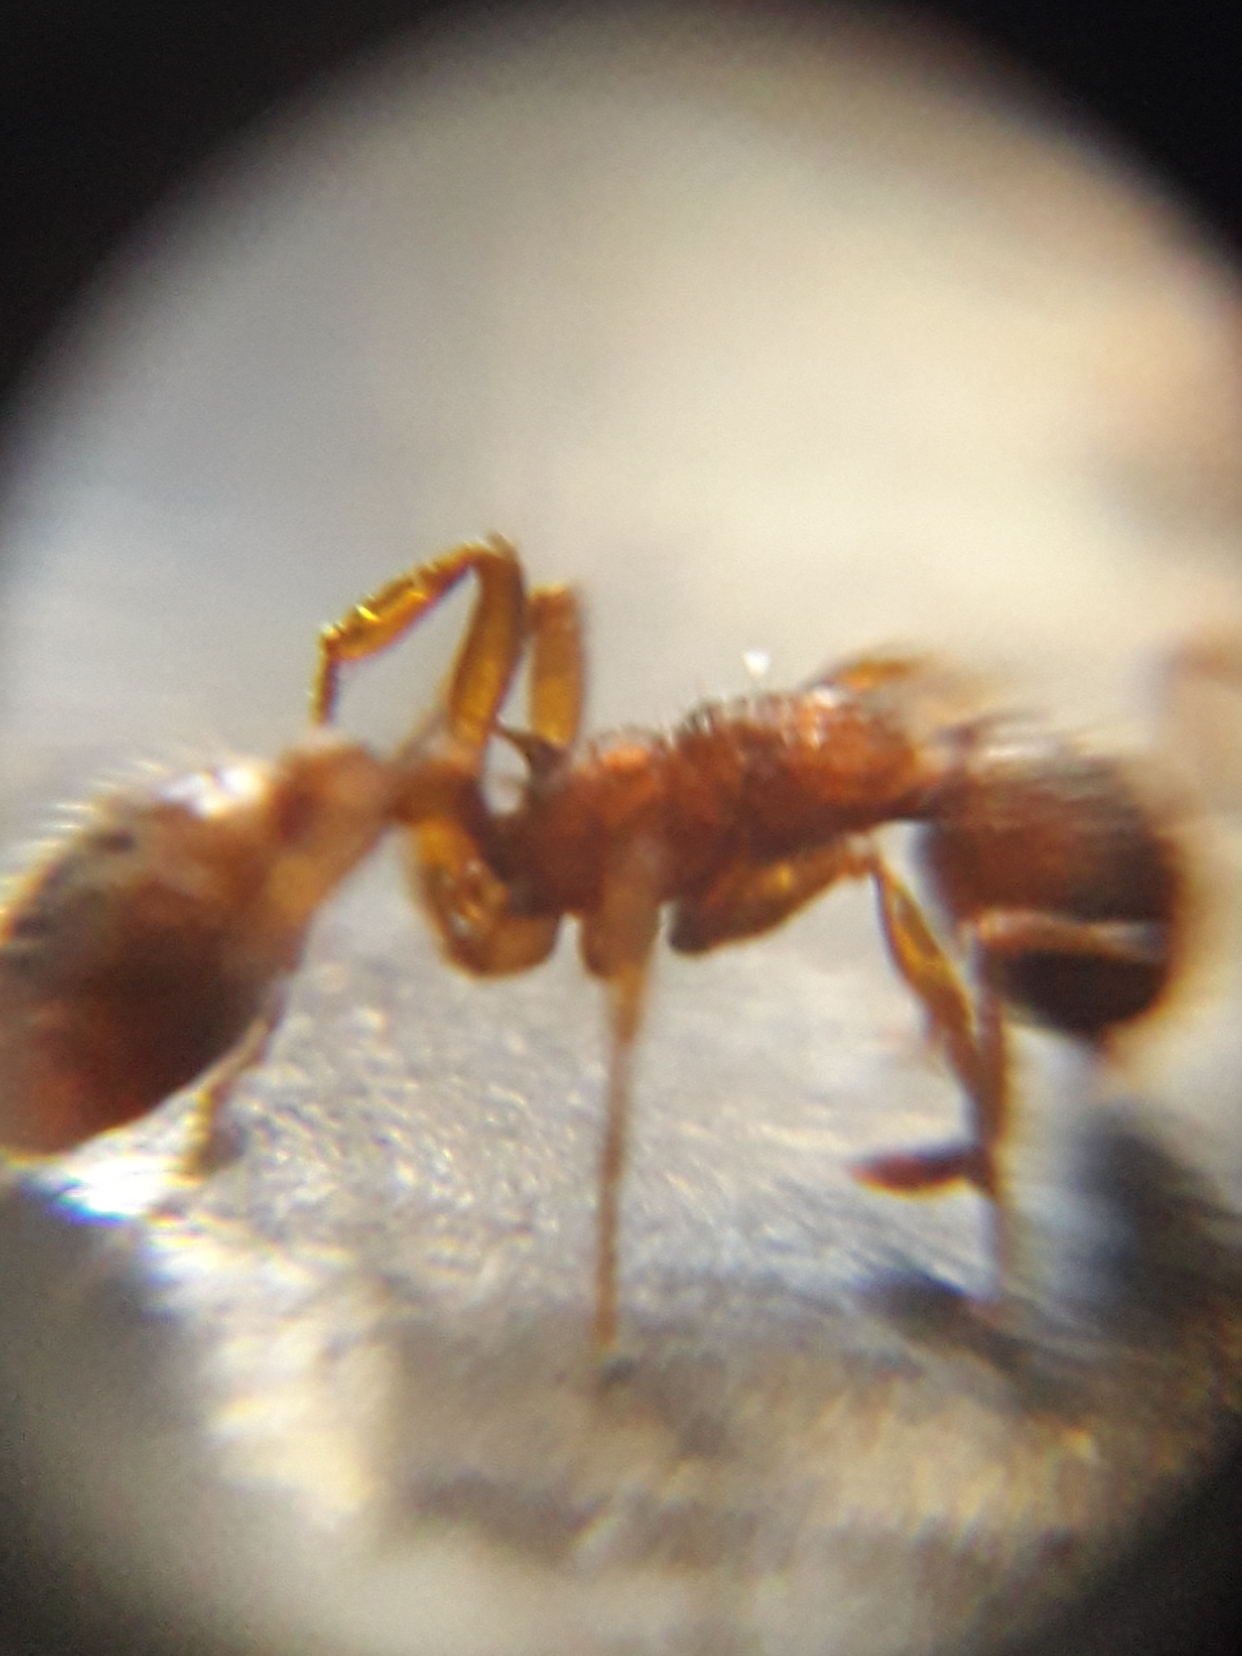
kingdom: Animalia
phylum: Arthropoda
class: Insecta
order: Hymenoptera
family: Formicidae
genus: Myrmica
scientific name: Myrmica ruginodis
